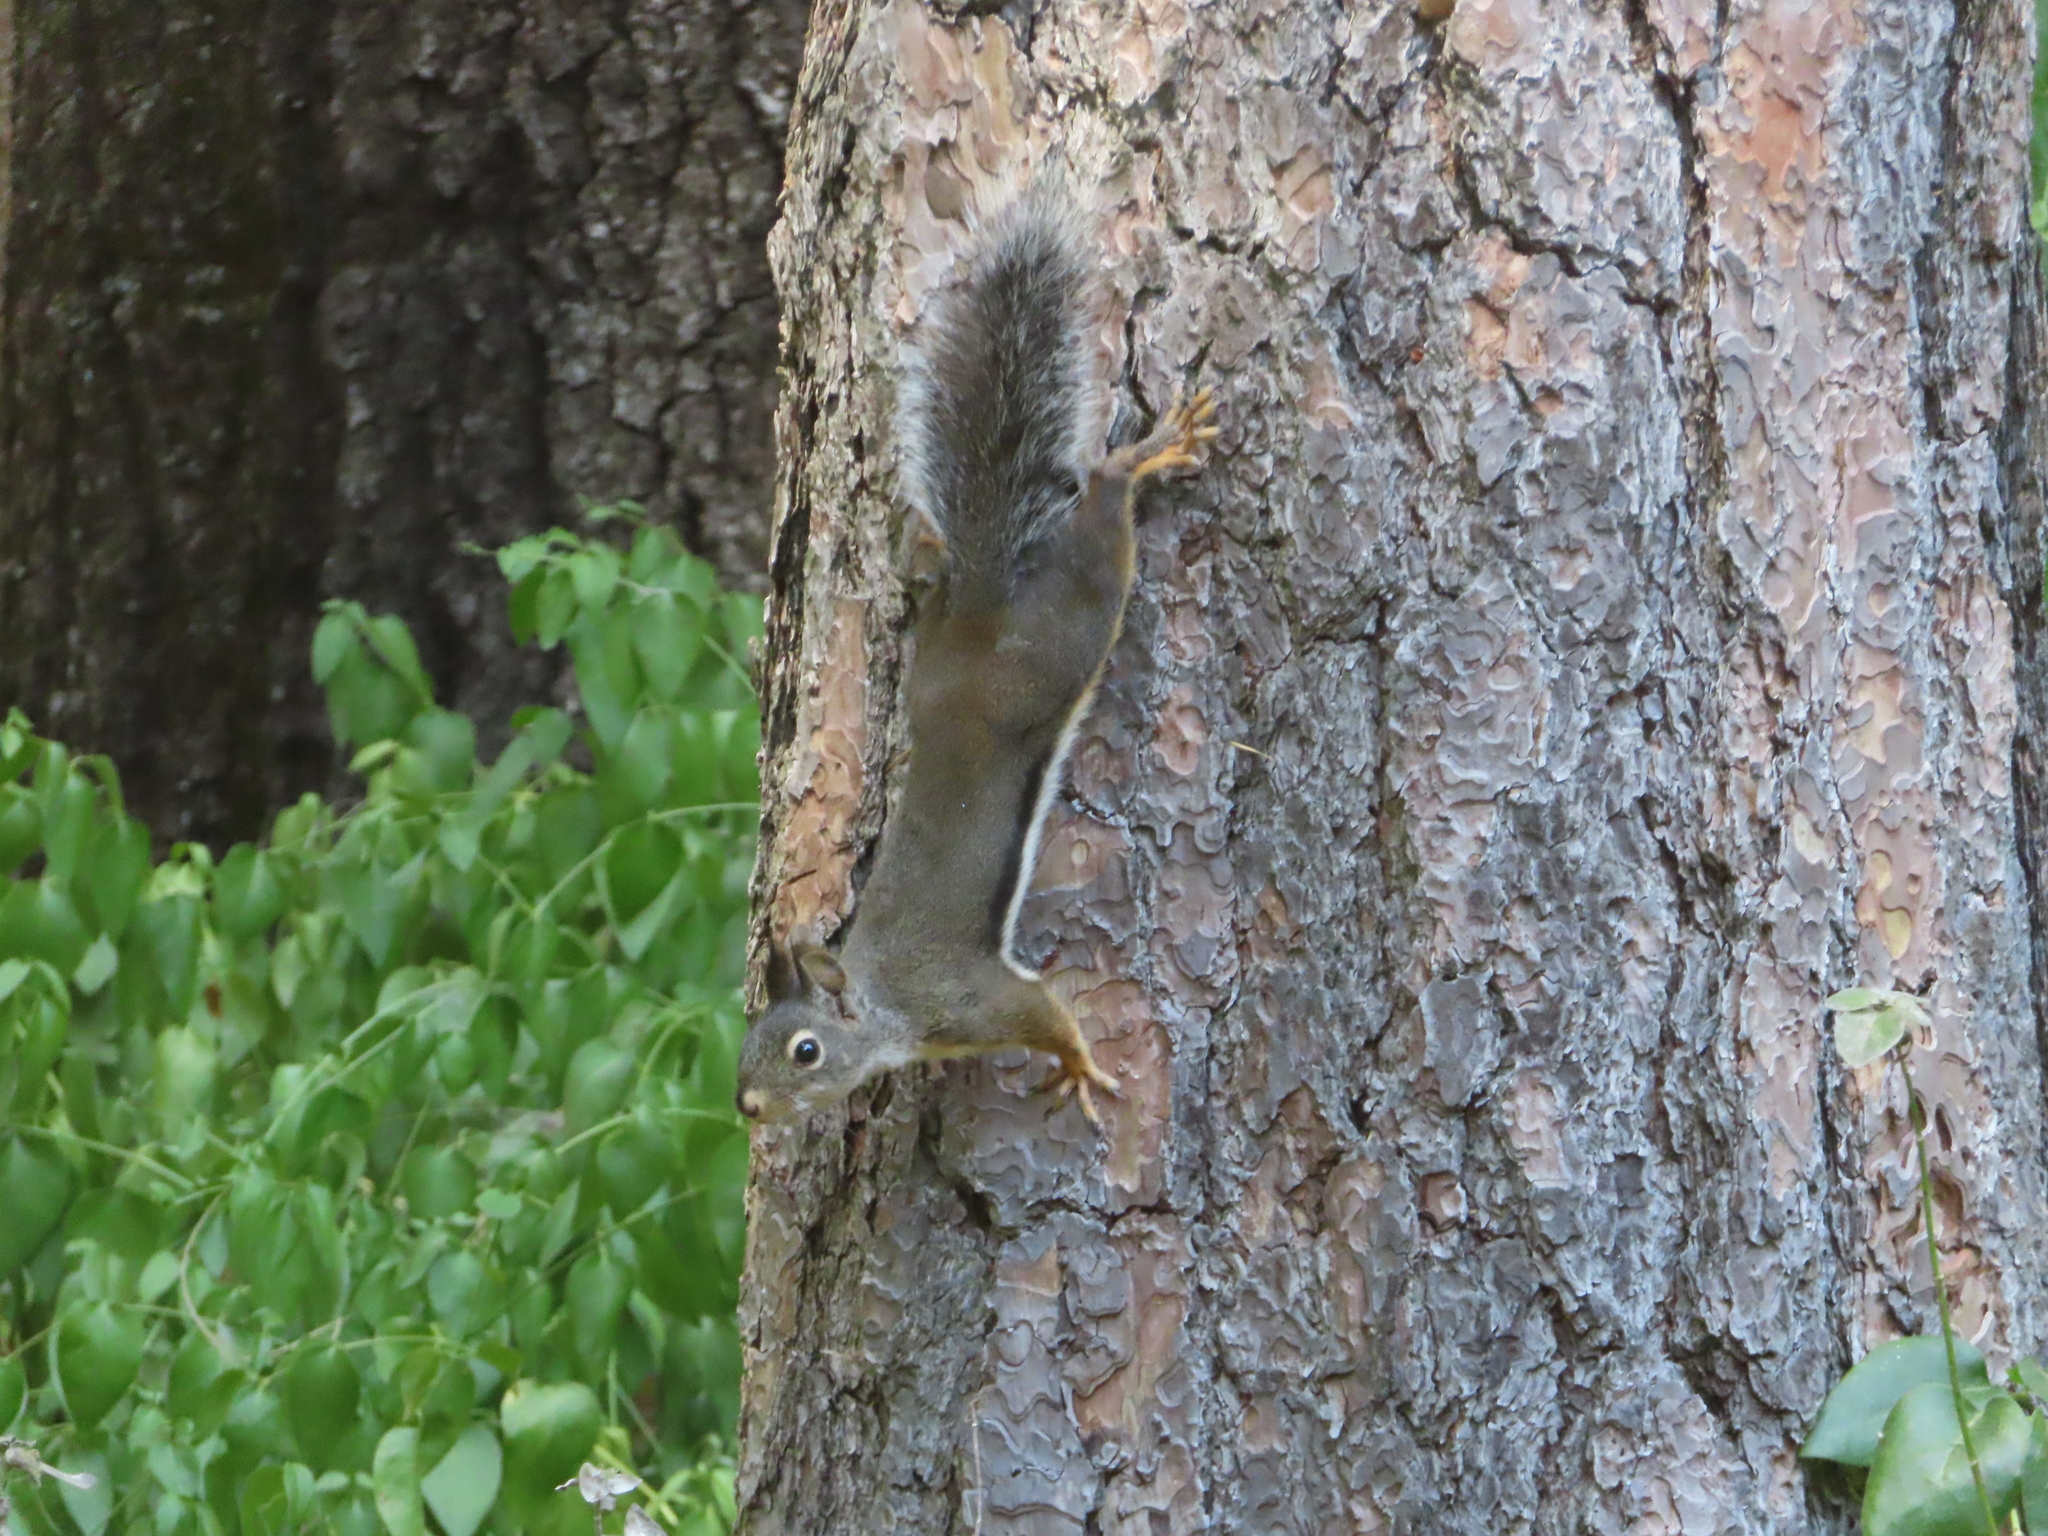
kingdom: Animalia
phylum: Chordata
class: Mammalia
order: Rodentia
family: Sciuridae
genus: Tamiasciurus
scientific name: Tamiasciurus douglasii
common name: Douglas's squirrel
